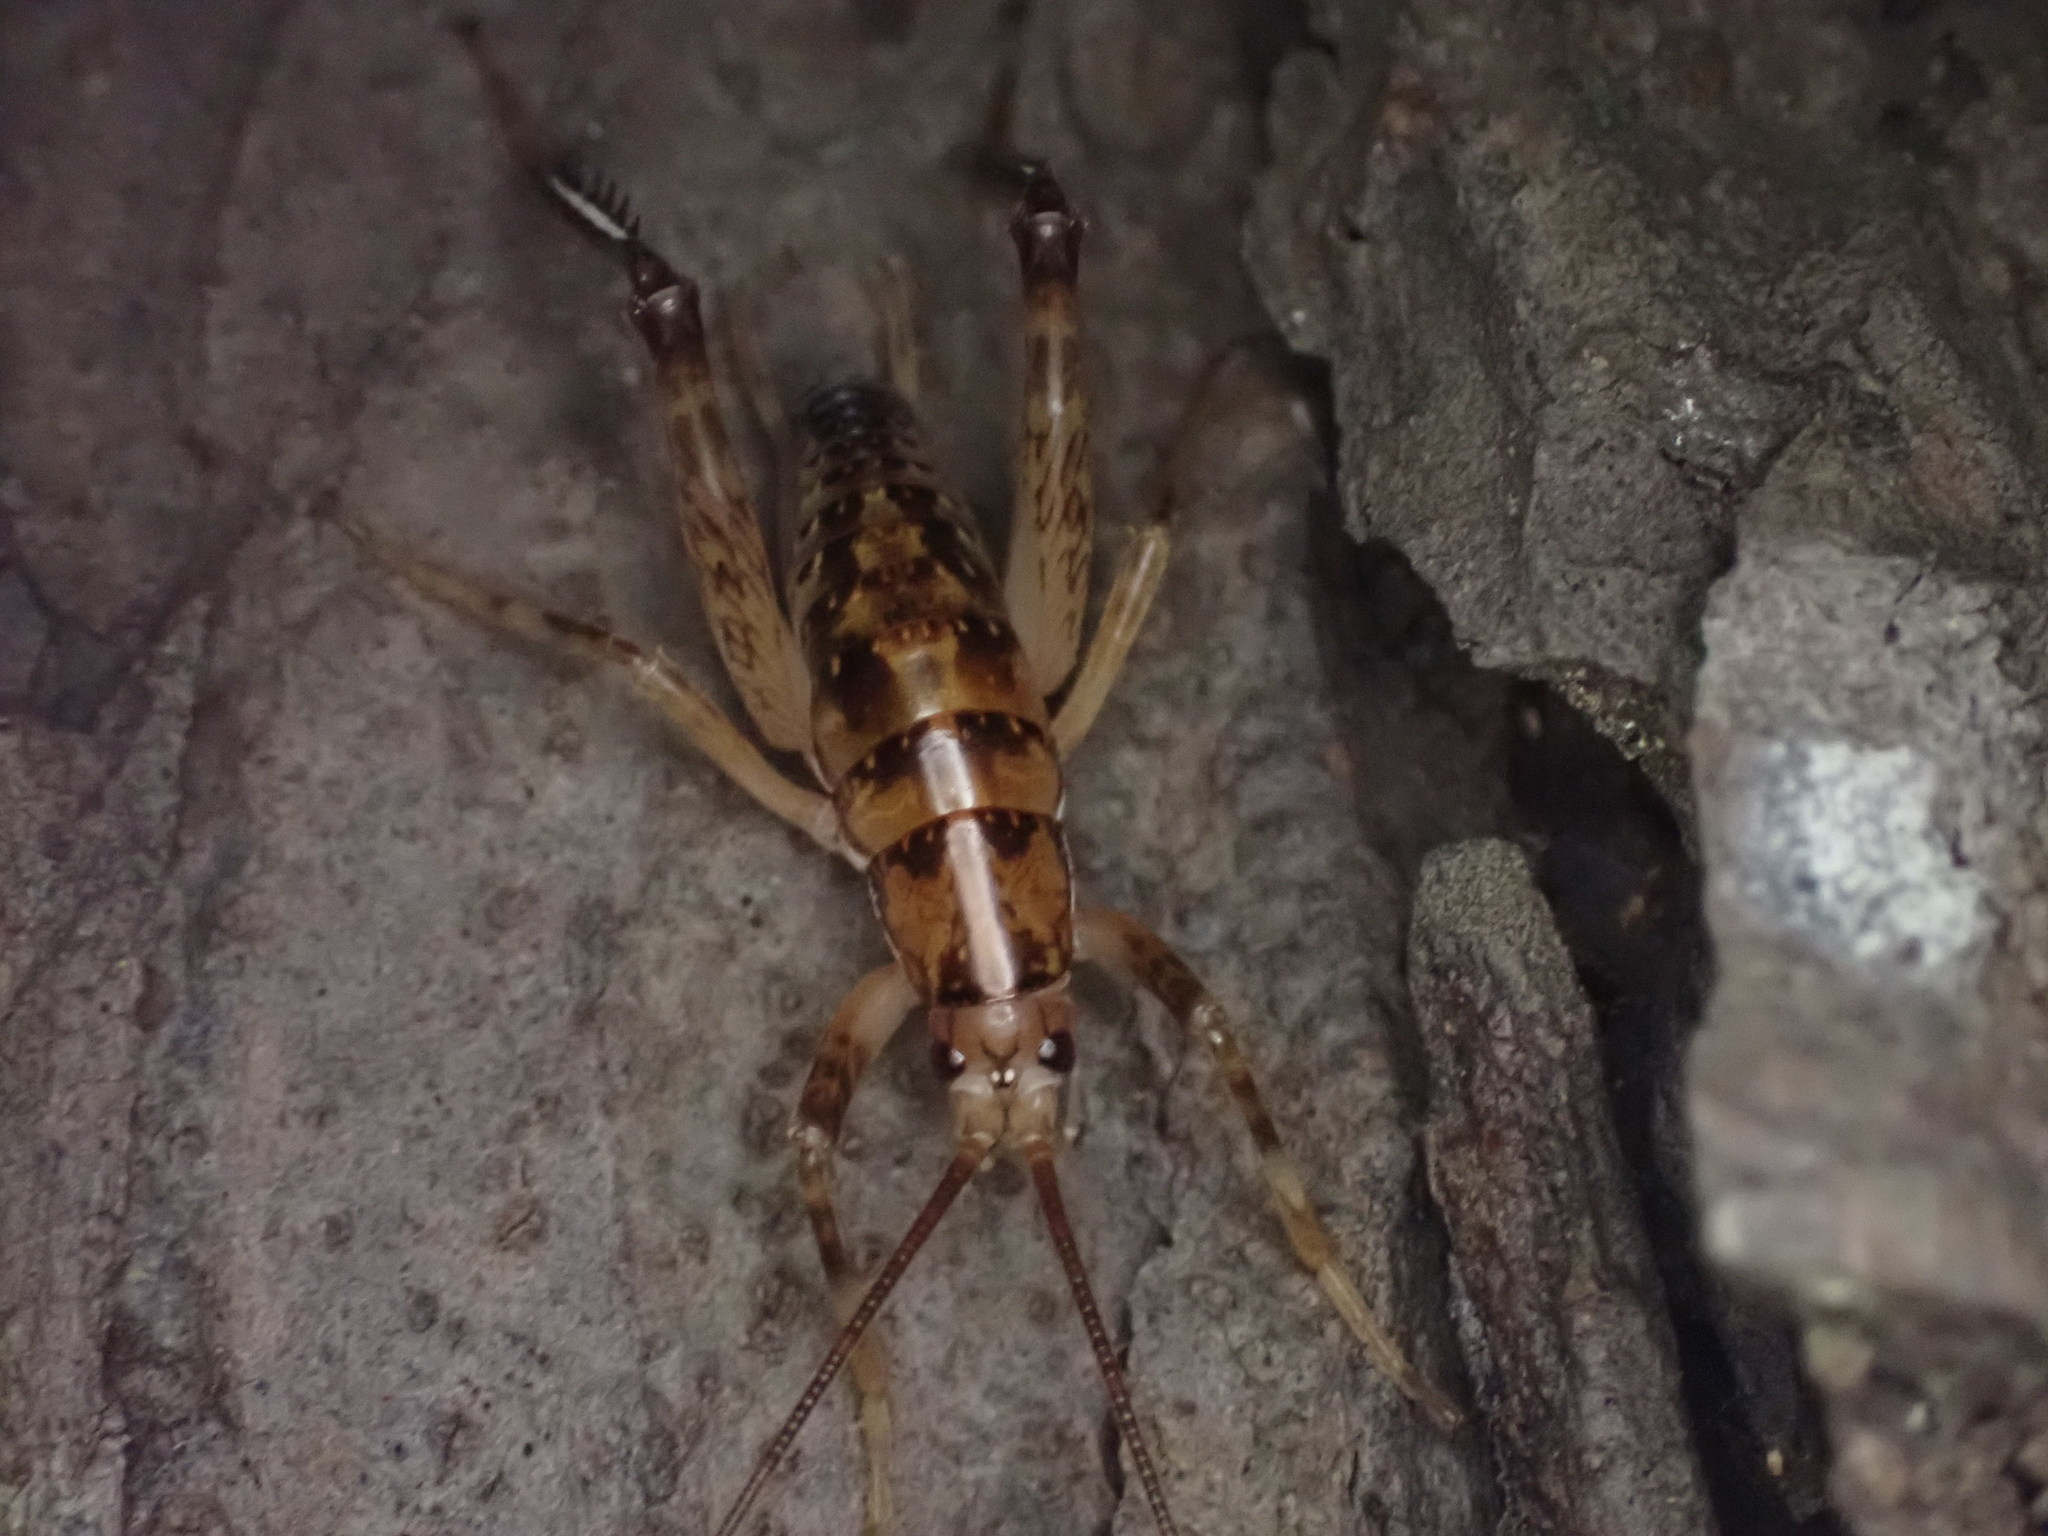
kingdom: Animalia
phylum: Arthropoda
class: Insecta
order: Orthoptera
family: Rhaphidophoridae
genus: Talitropsis
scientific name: Talitropsis sedilloti
